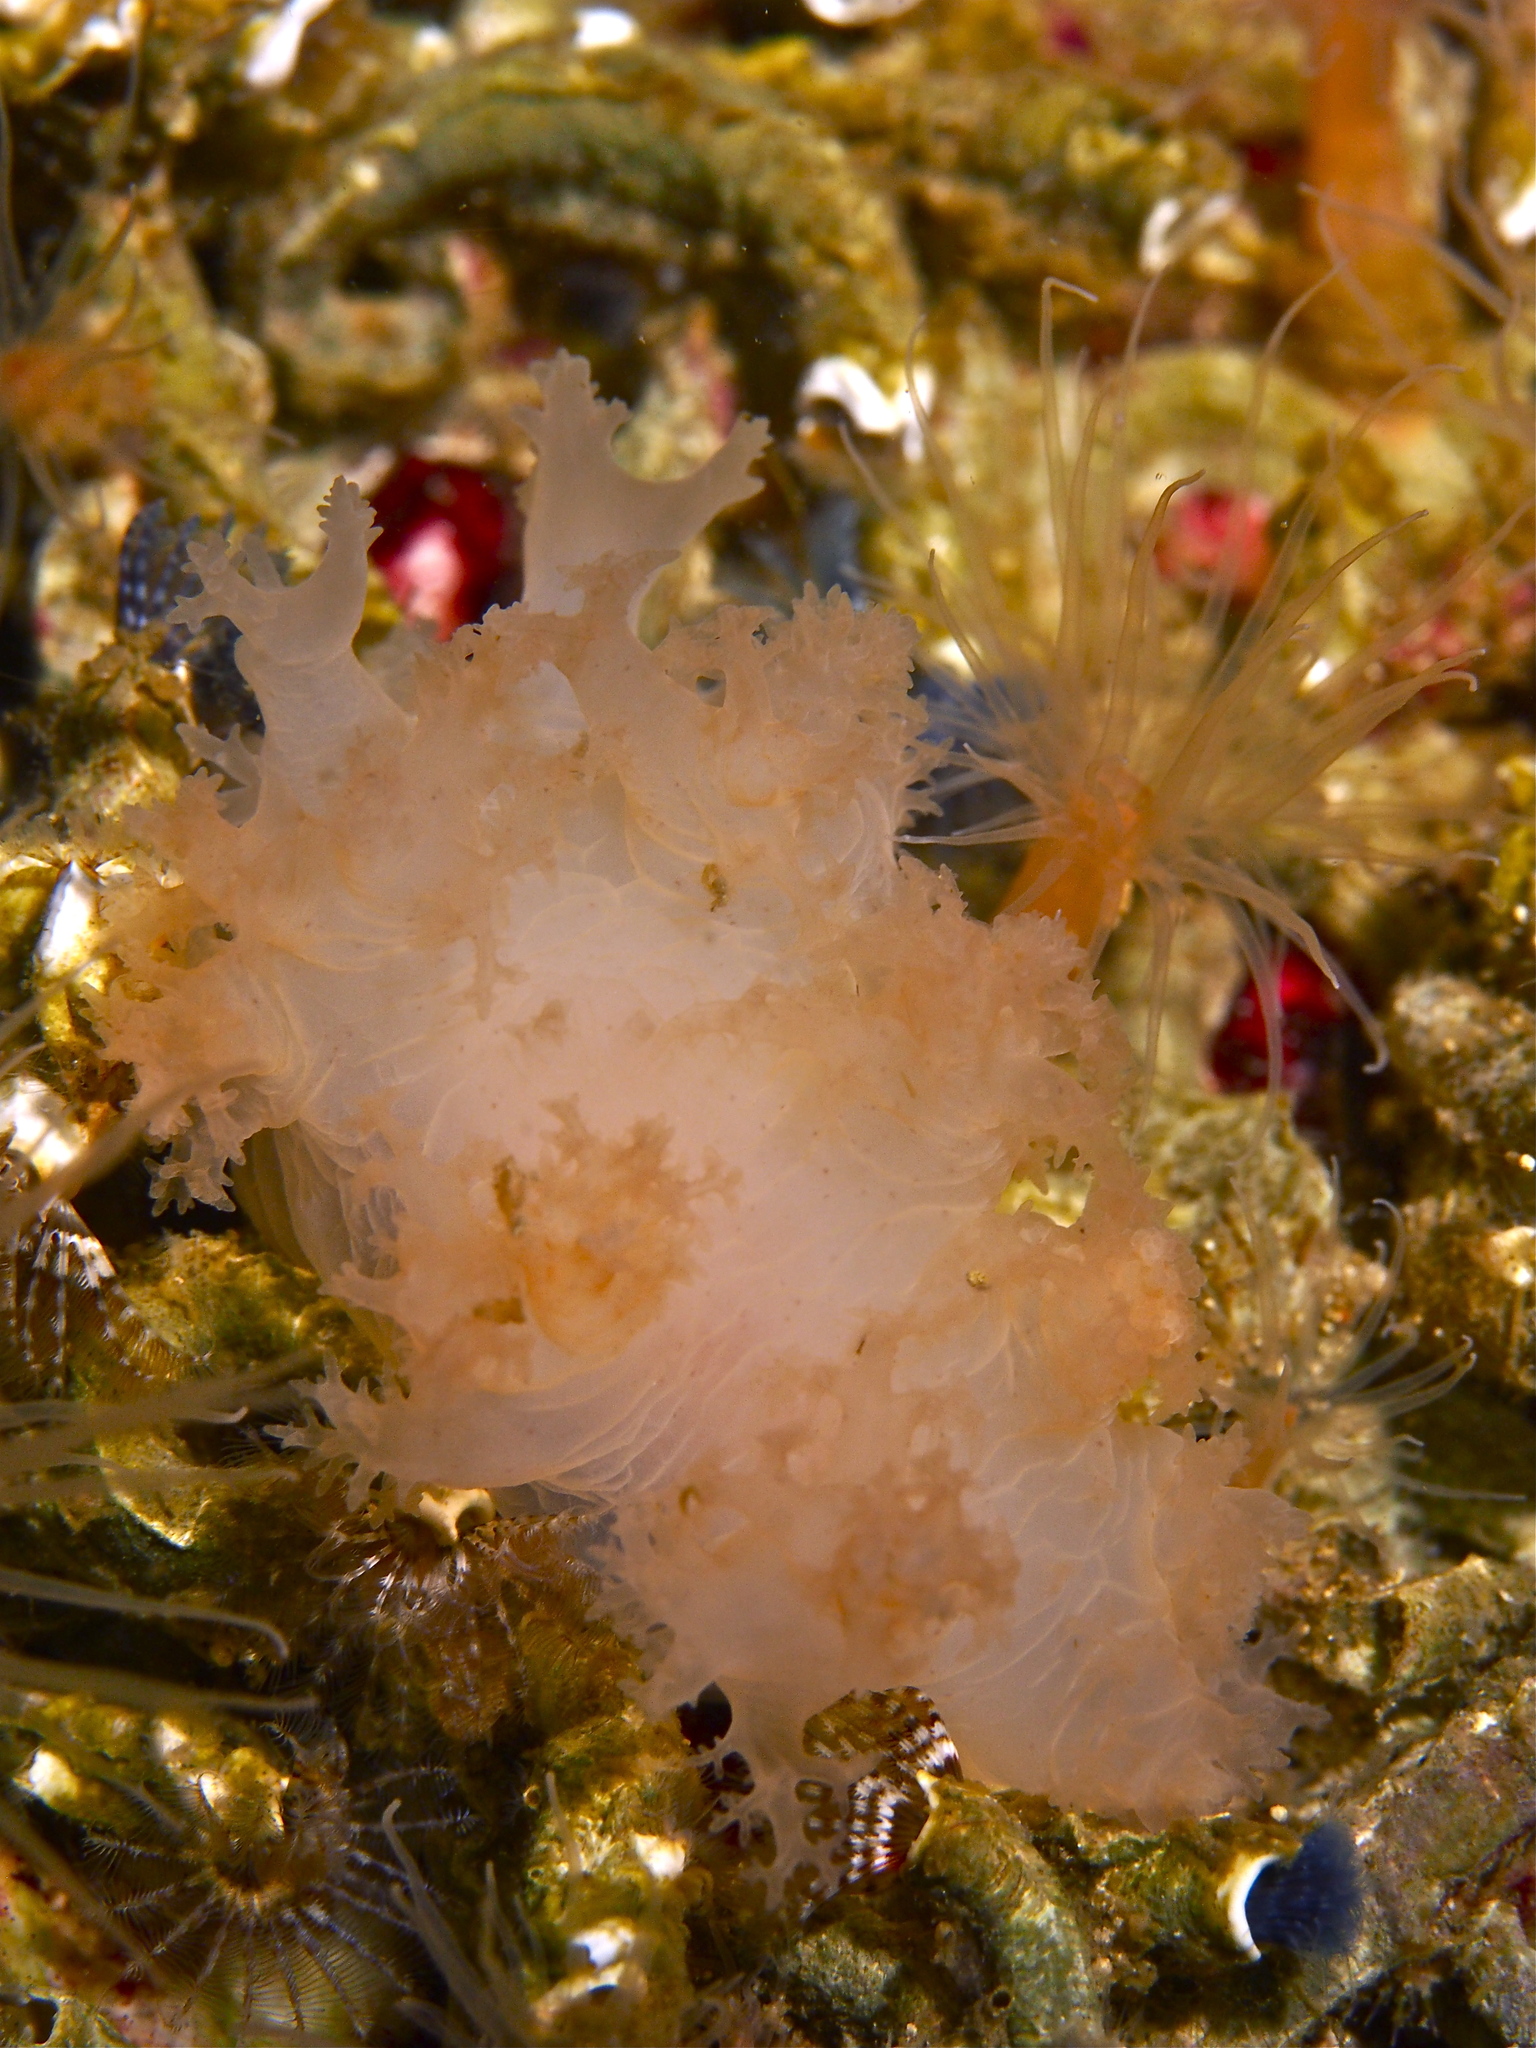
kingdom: Animalia
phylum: Mollusca
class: Gastropoda
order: Nudibranchia
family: Dendronotidae
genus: Dendronotus
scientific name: Dendronotus lacteus
